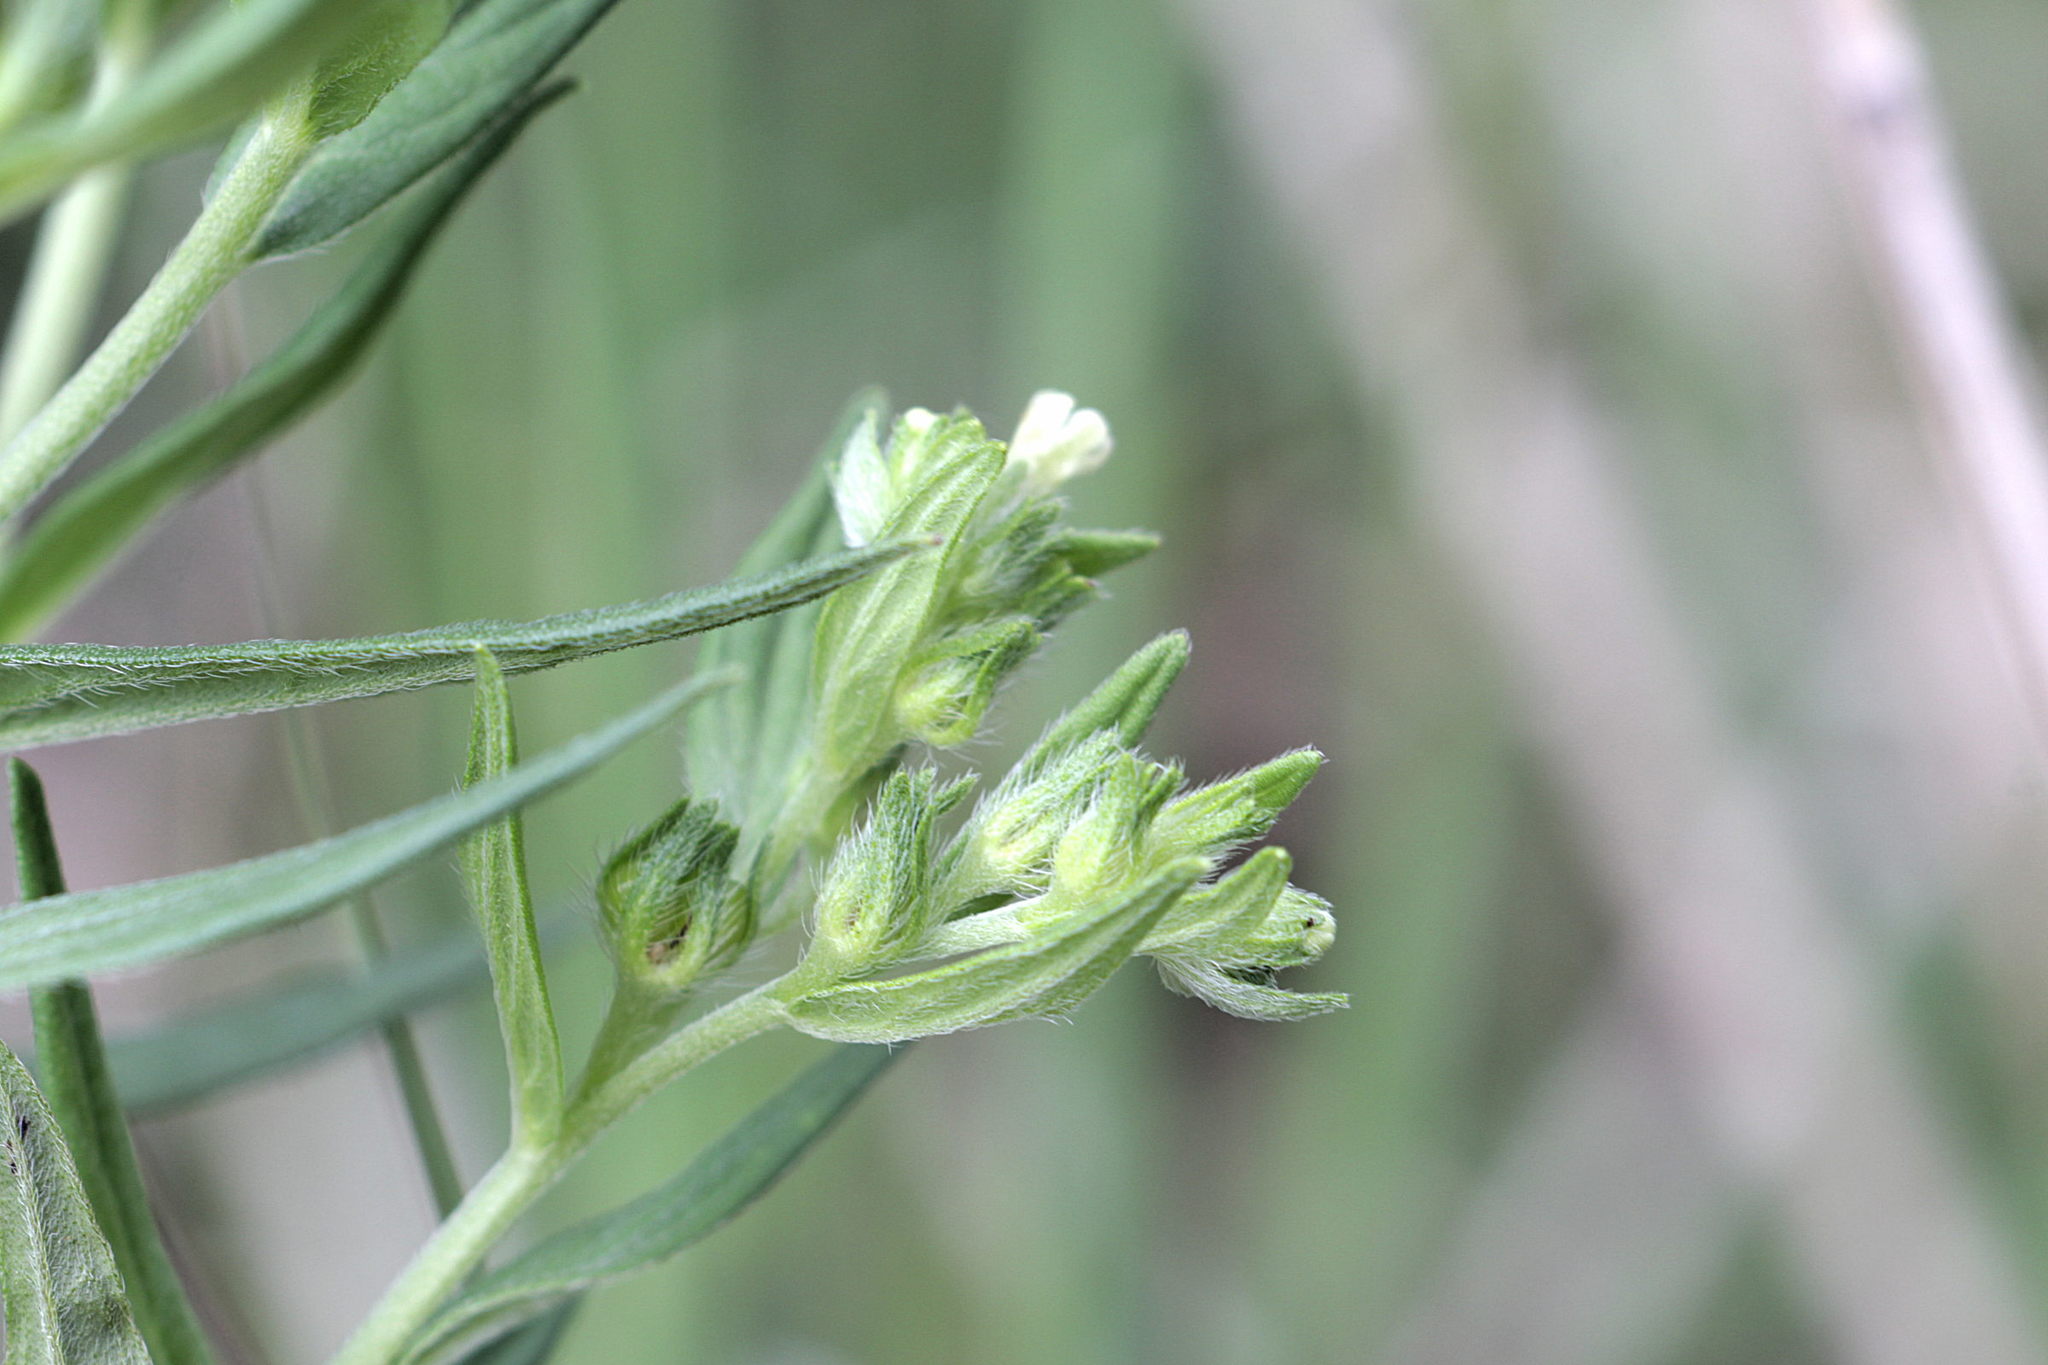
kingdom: Plantae
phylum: Tracheophyta
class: Magnoliopsida
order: Boraginales
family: Boraginaceae
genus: Lithospermum
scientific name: Lithospermum officinale
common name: Common gromwell
